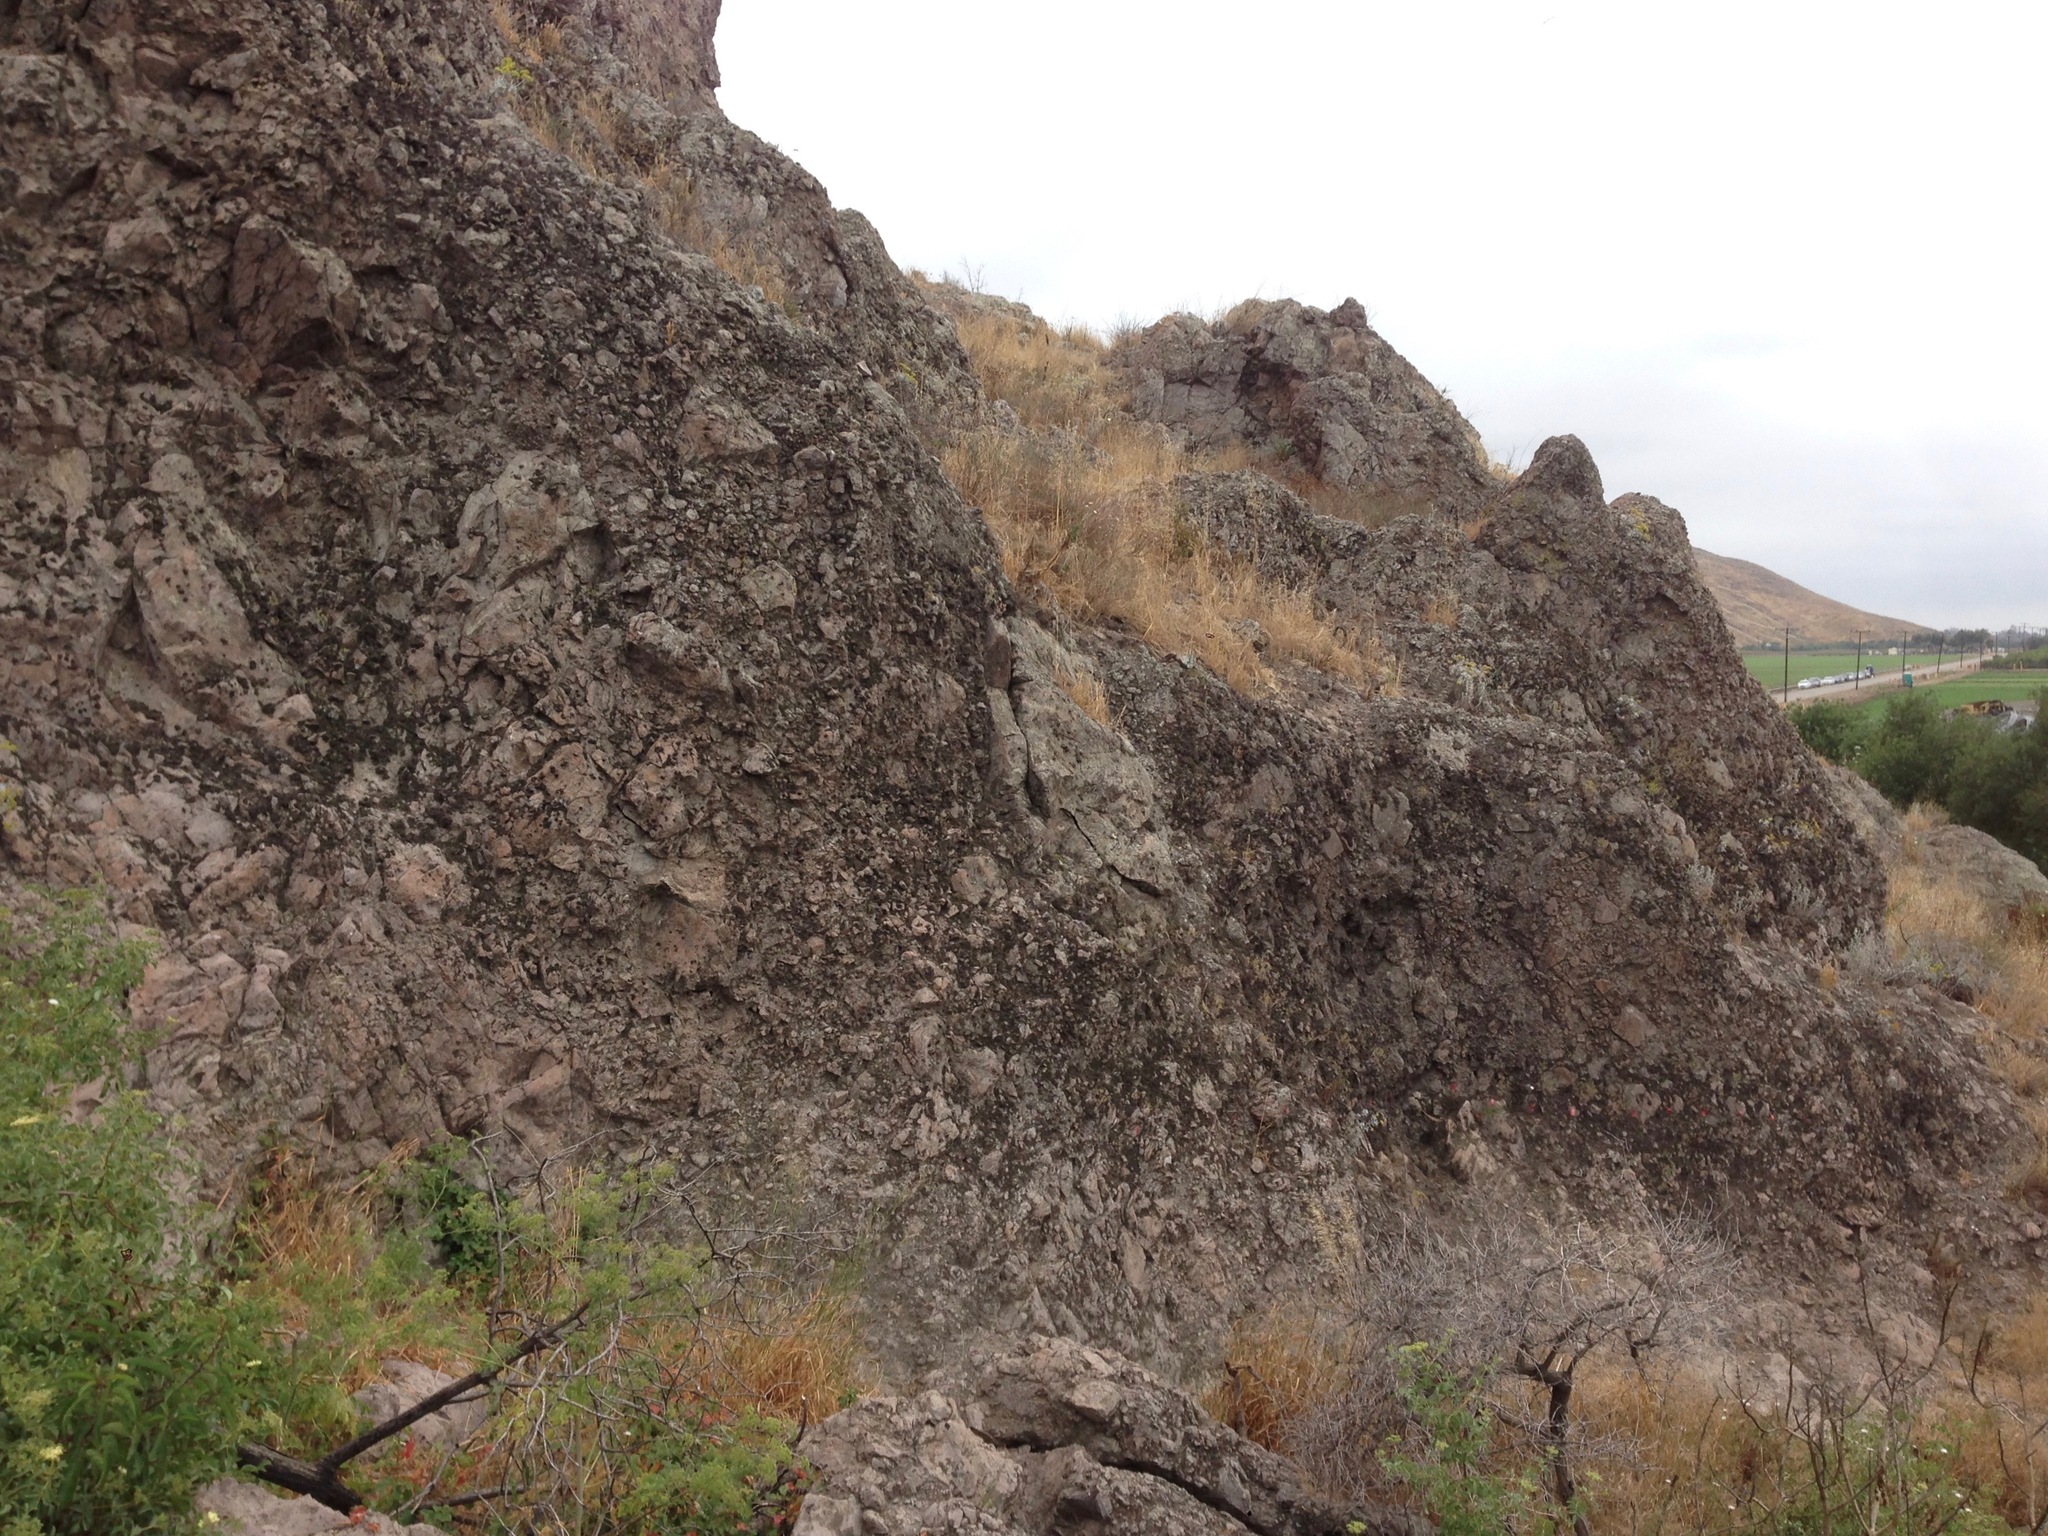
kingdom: Plantae
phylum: Tracheophyta
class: Magnoliopsida
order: Dipsacales
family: Viburnaceae
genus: Sambucus
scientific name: Sambucus cerulea
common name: Blue elder
